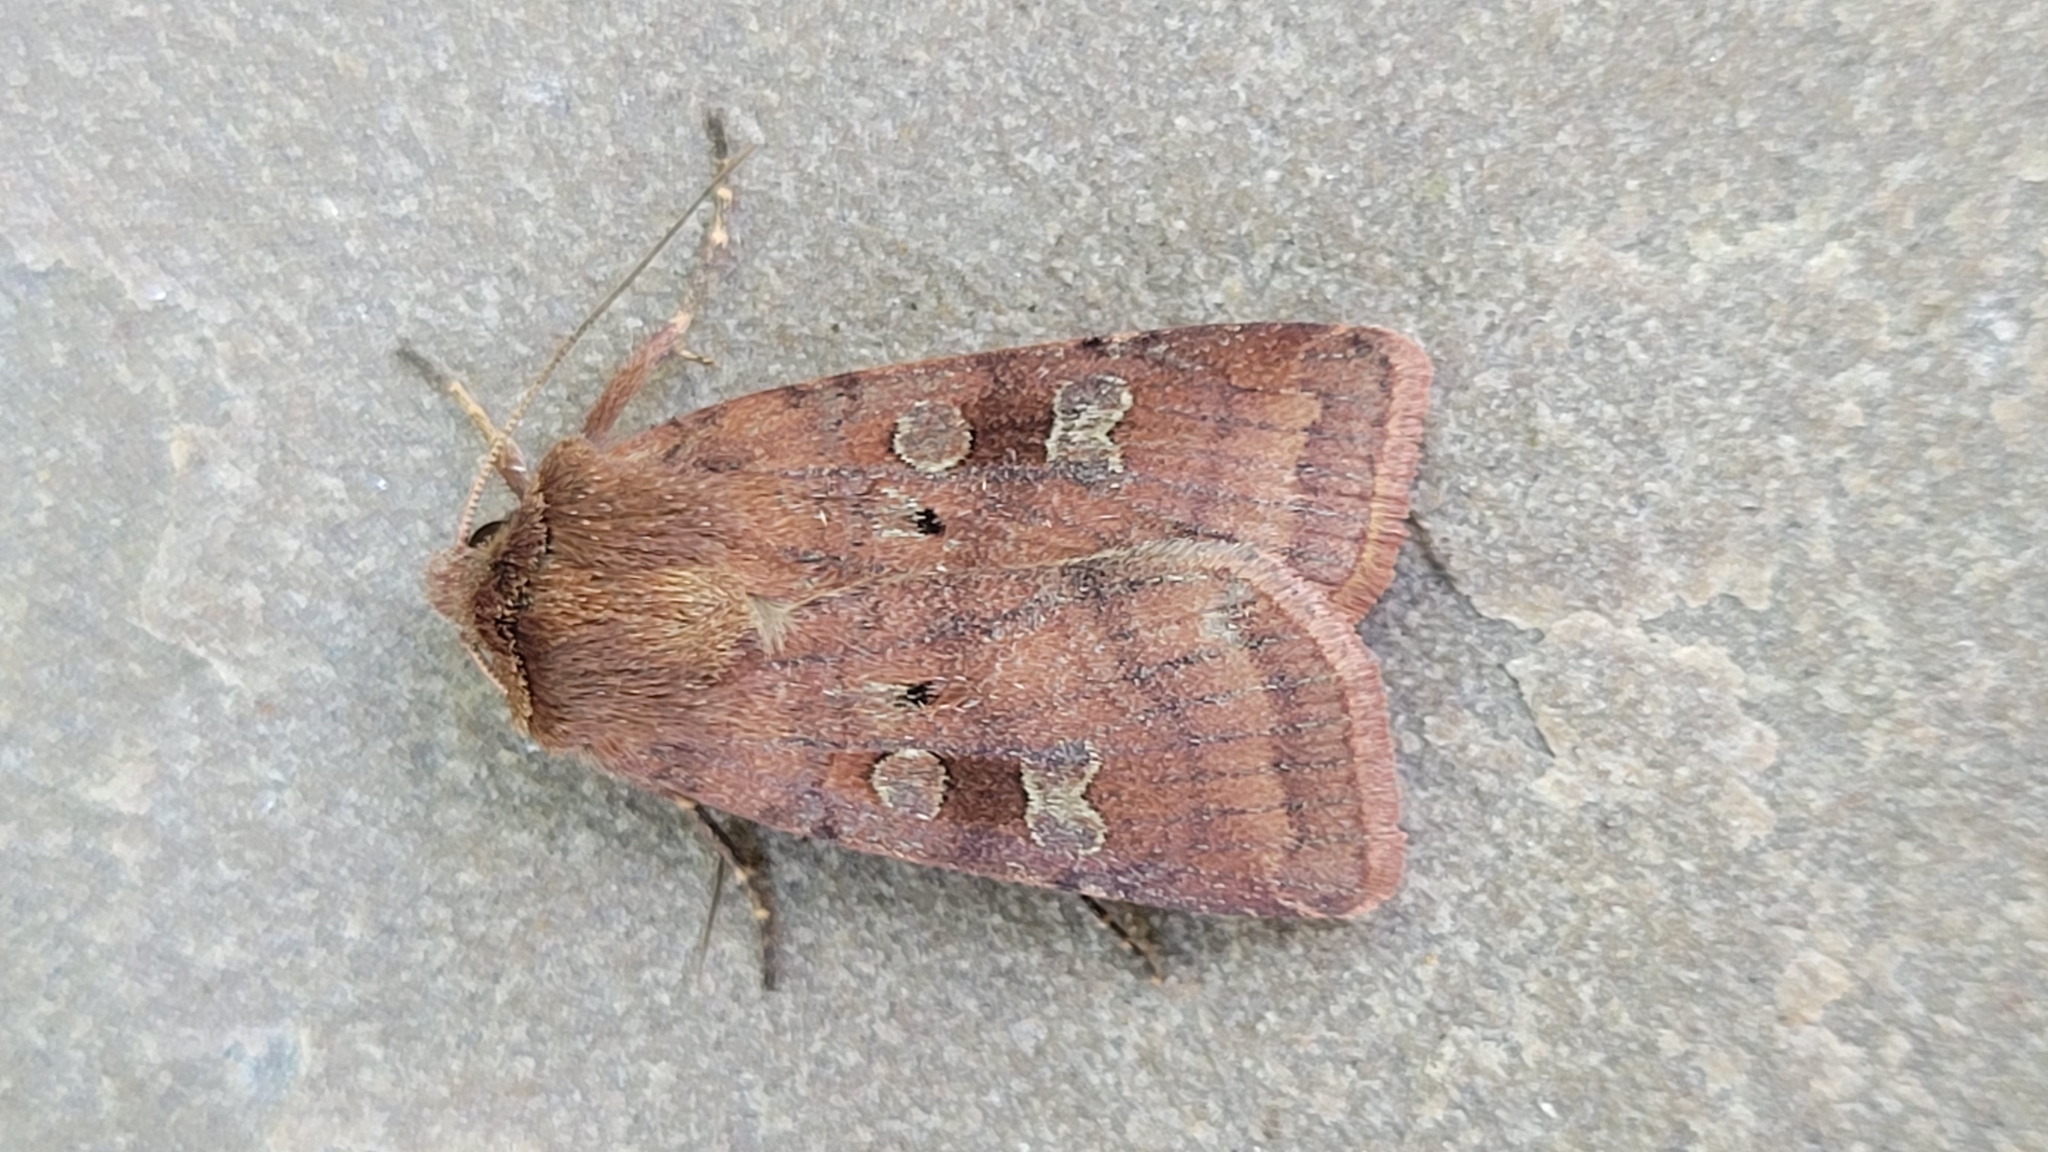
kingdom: Animalia
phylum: Arthropoda
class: Insecta
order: Lepidoptera
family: Noctuidae
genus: Diarsia
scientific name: Diarsia rubi
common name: Small square-spot
